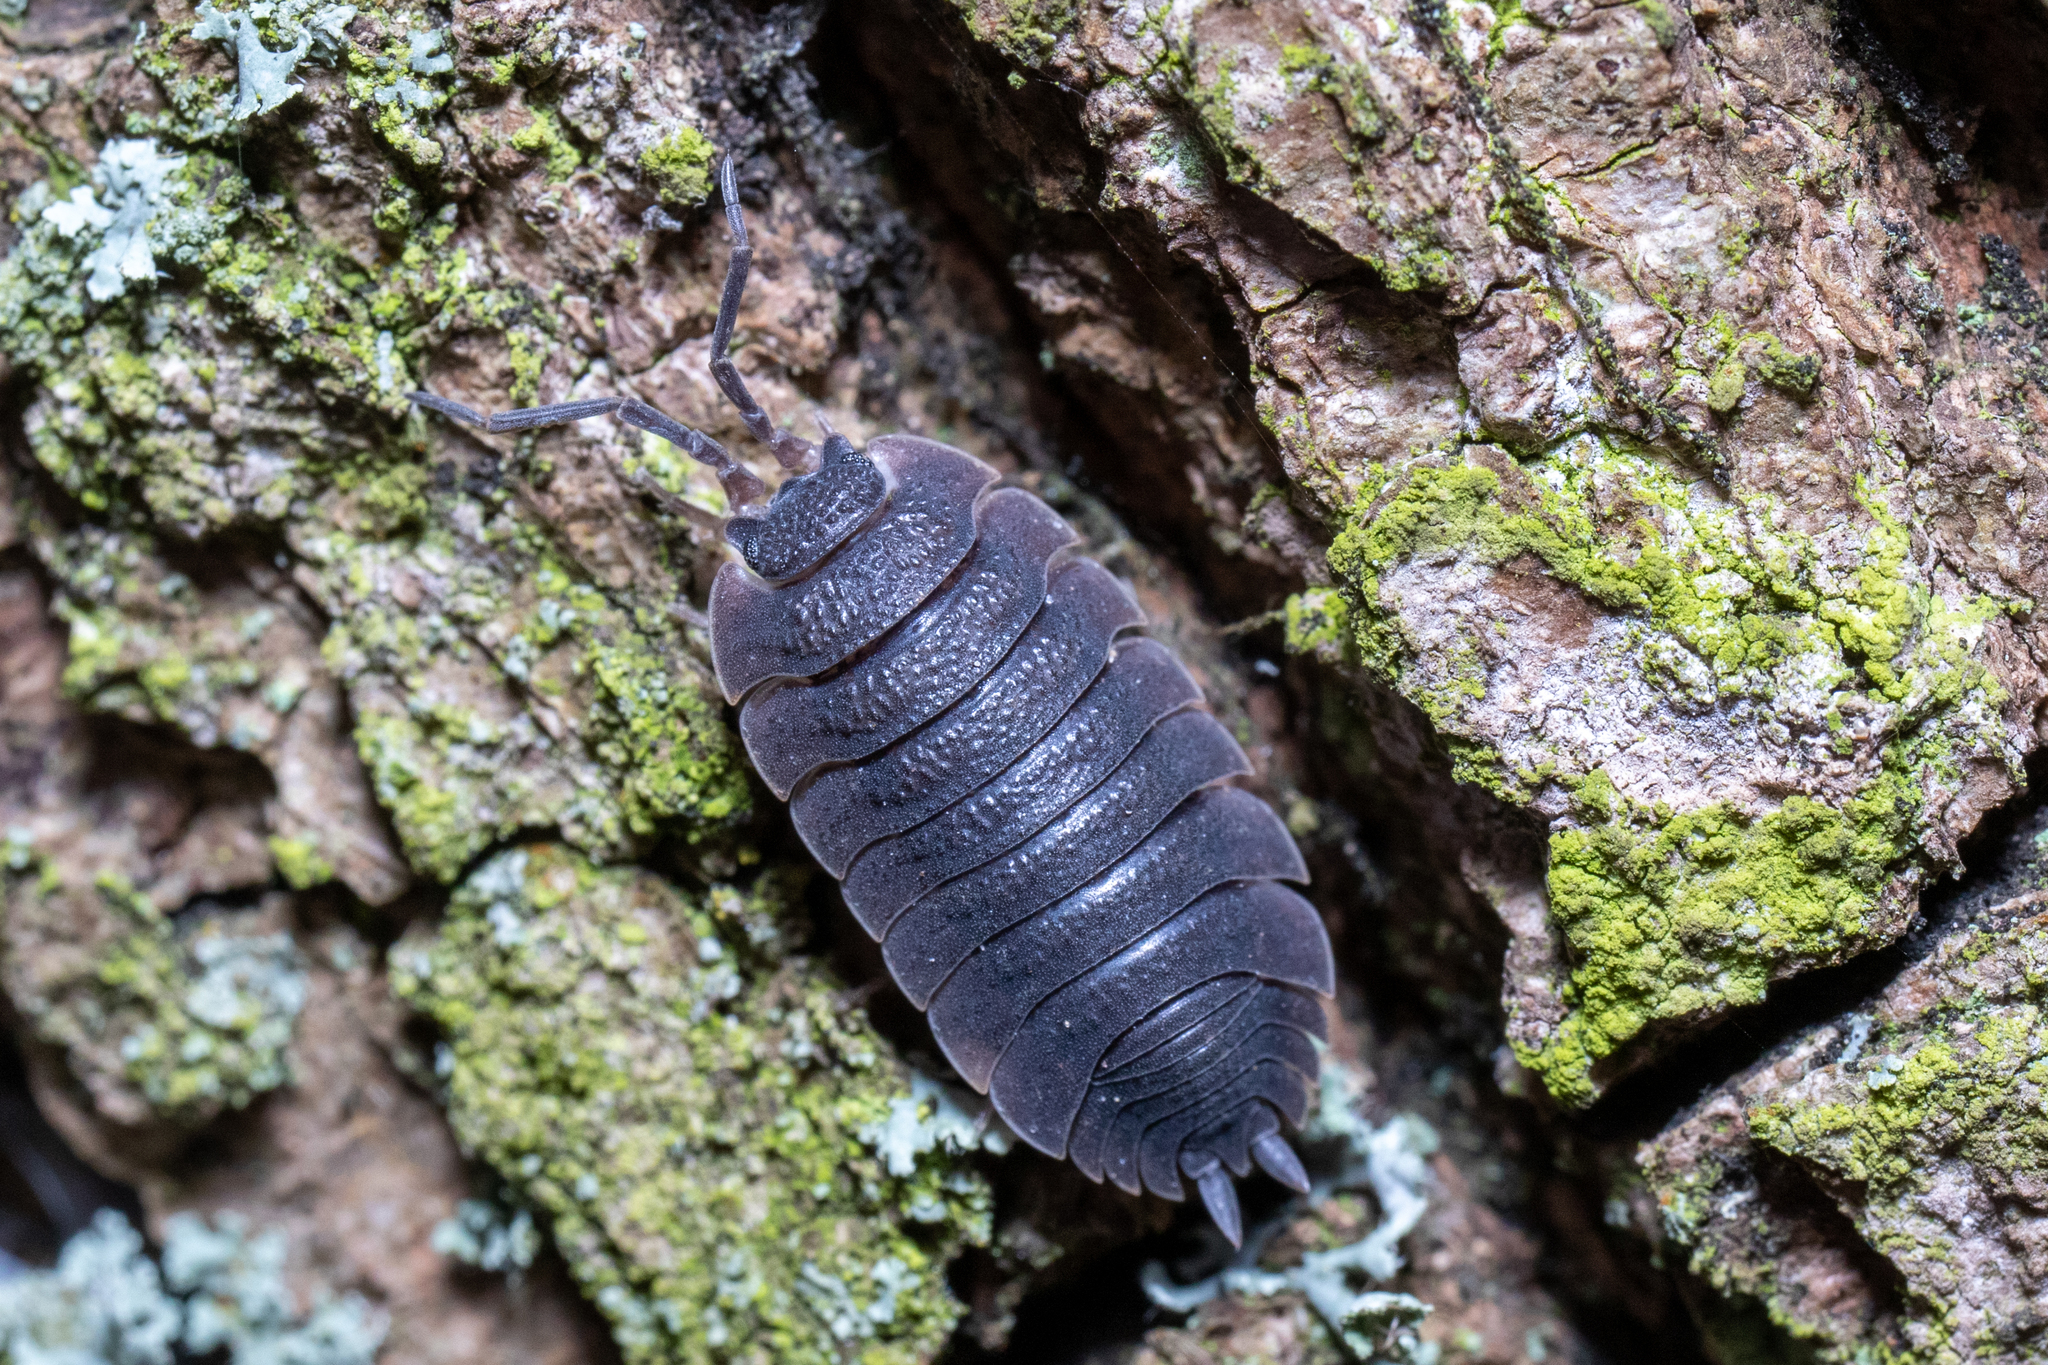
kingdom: Animalia
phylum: Arthropoda
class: Malacostraca
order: Isopoda
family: Porcellionidae
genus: Porcellio
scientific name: Porcellio scaber
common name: Common rough woodlouse
